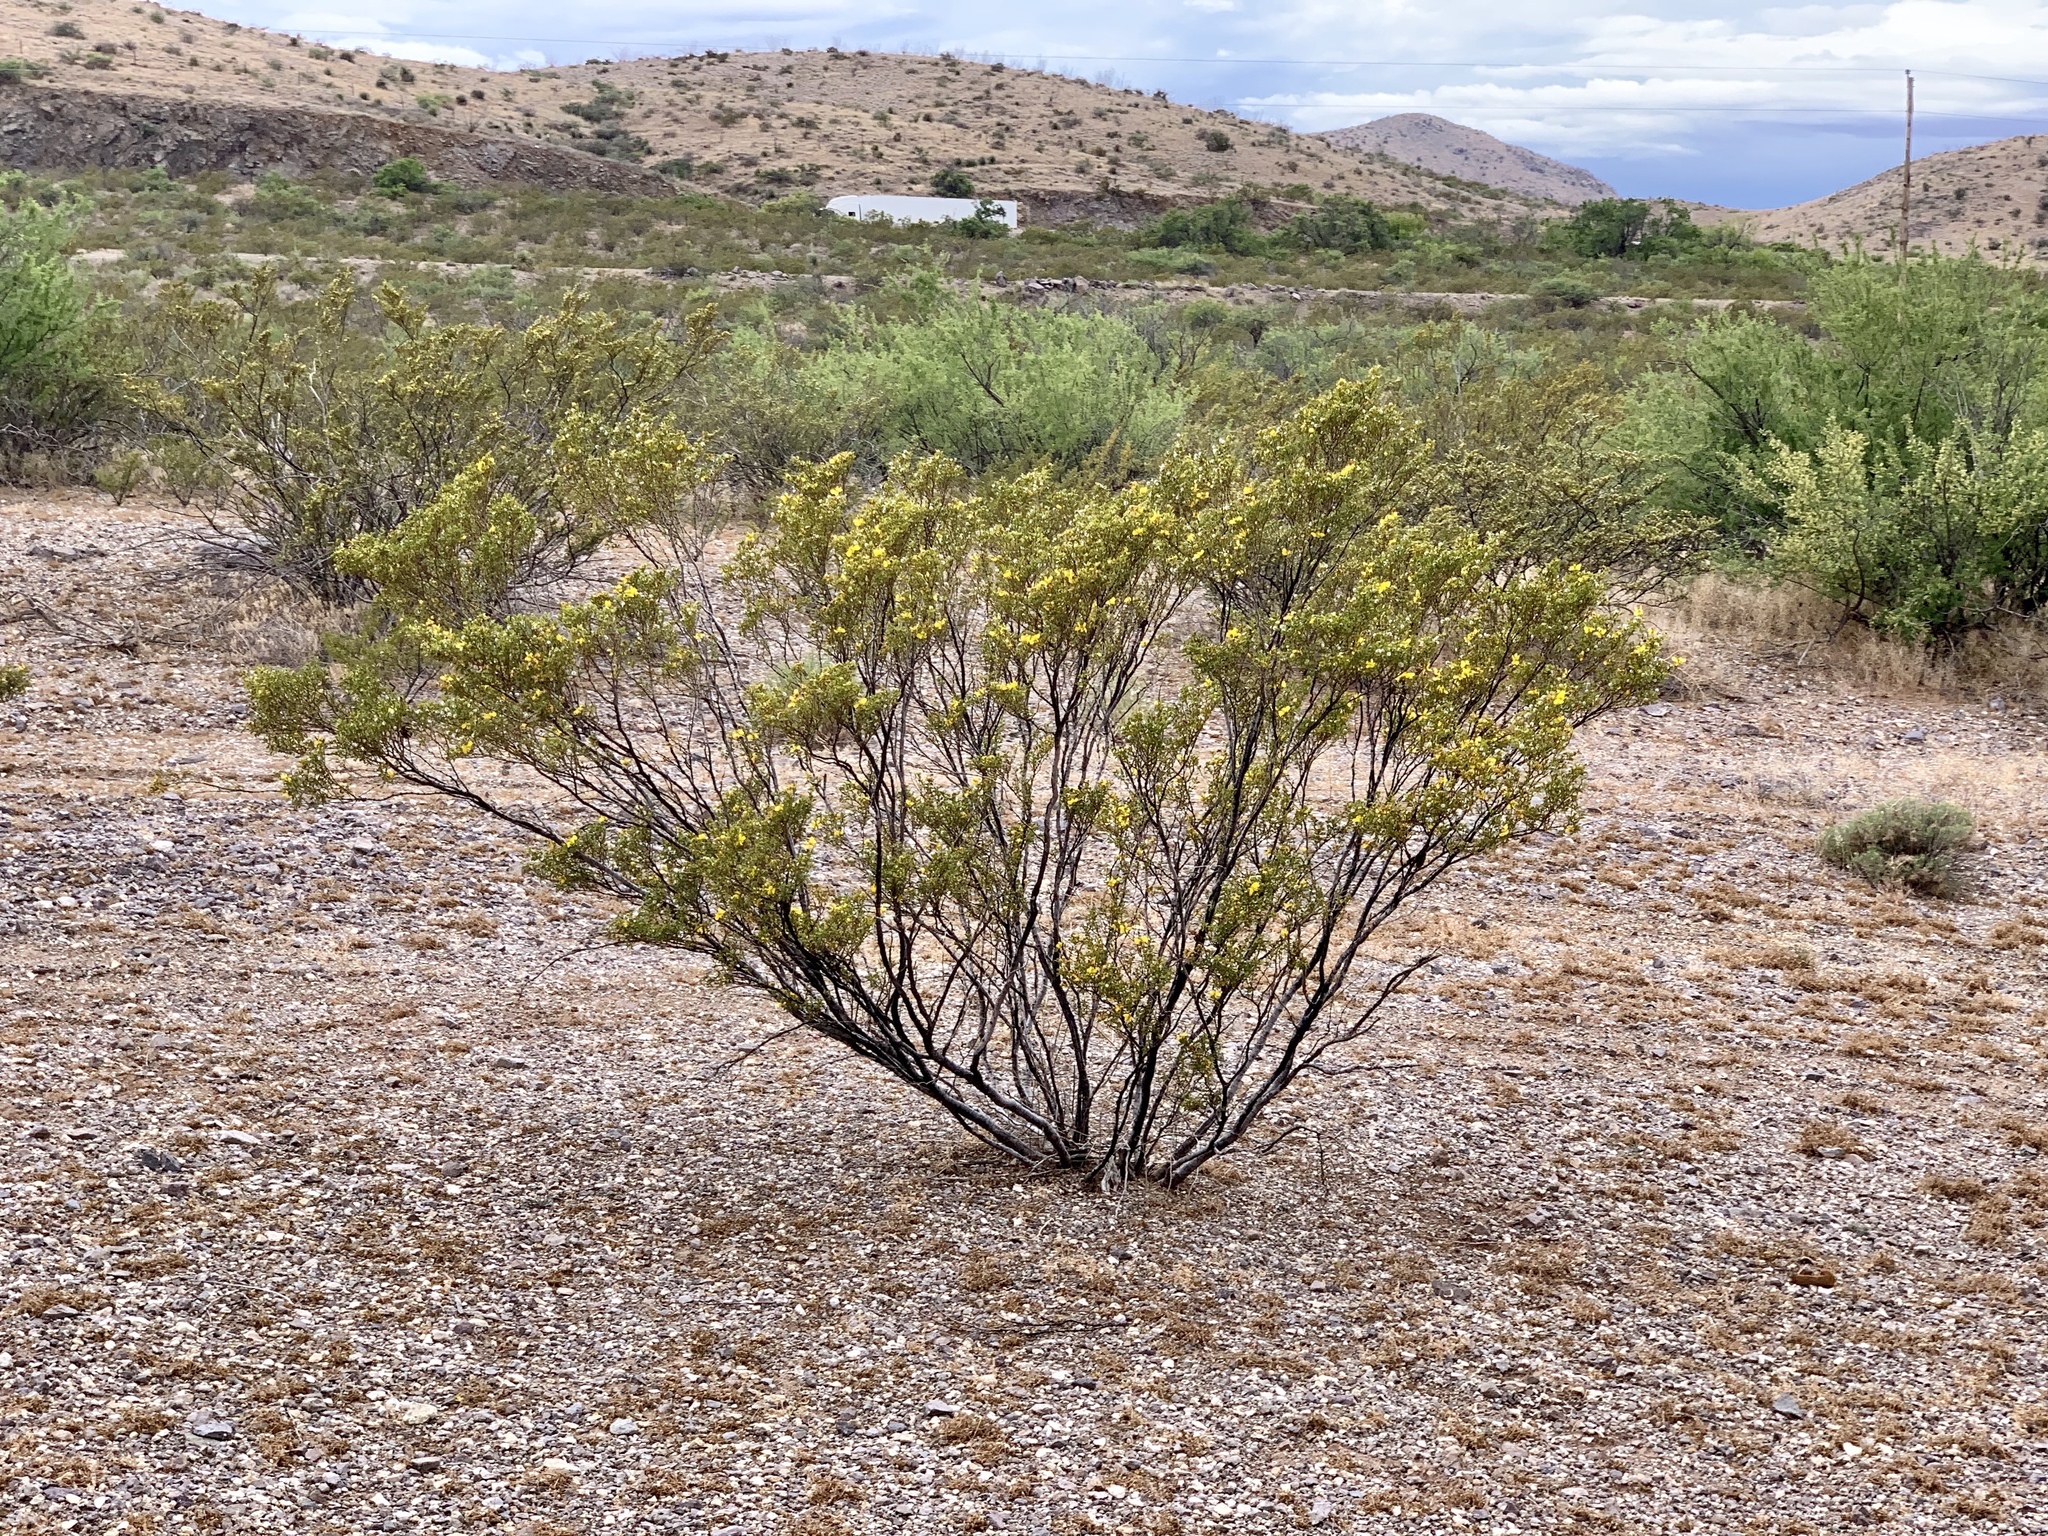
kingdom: Plantae
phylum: Tracheophyta
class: Magnoliopsida
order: Zygophyllales
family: Zygophyllaceae
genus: Larrea
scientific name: Larrea tridentata
